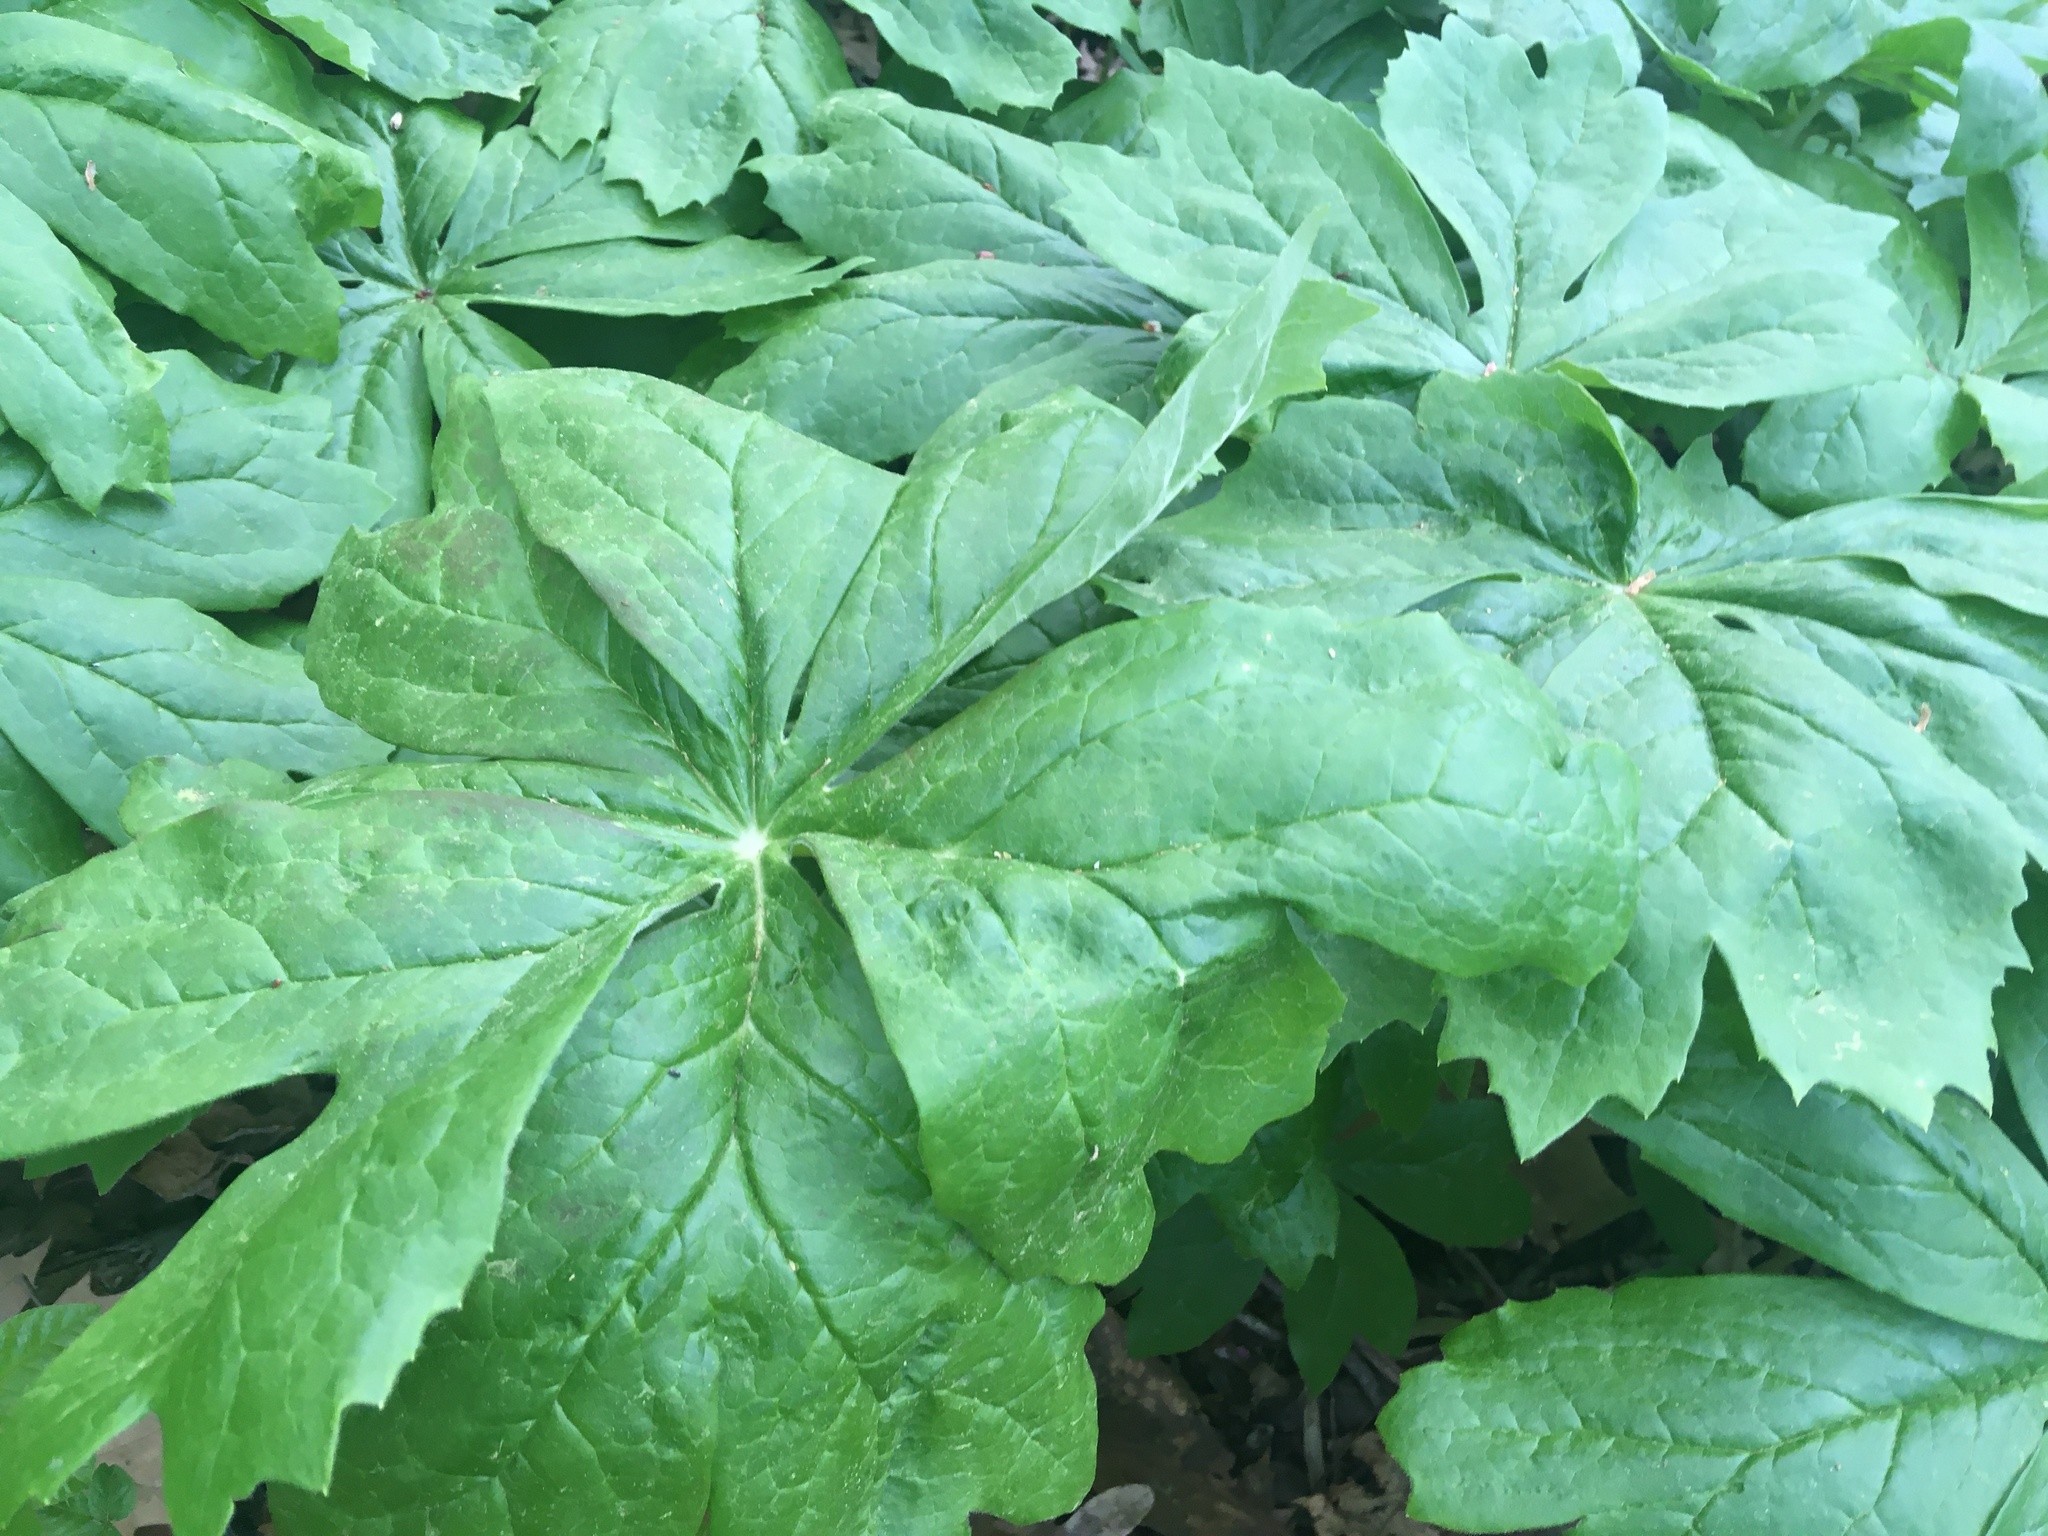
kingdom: Plantae
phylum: Tracheophyta
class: Magnoliopsida
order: Ranunculales
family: Berberidaceae
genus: Podophyllum
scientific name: Podophyllum peltatum
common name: Wild mandrake
